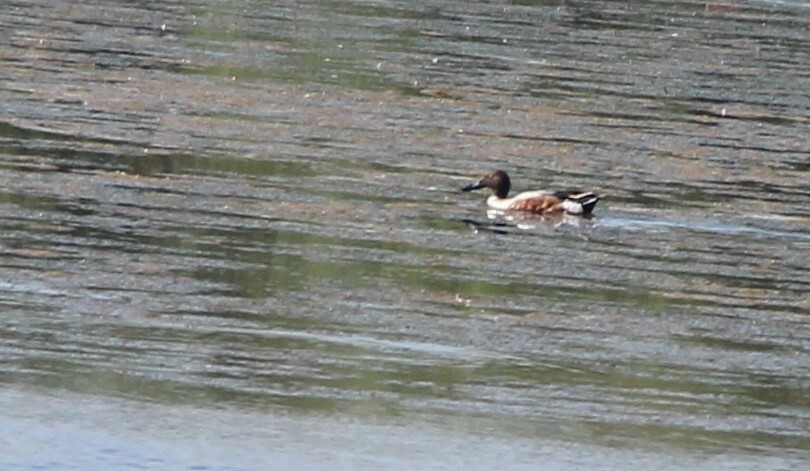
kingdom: Animalia
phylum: Chordata
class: Aves
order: Anseriformes
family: Anatidae
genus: Spatula
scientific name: Spatula clypeata
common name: Northern shoveler
